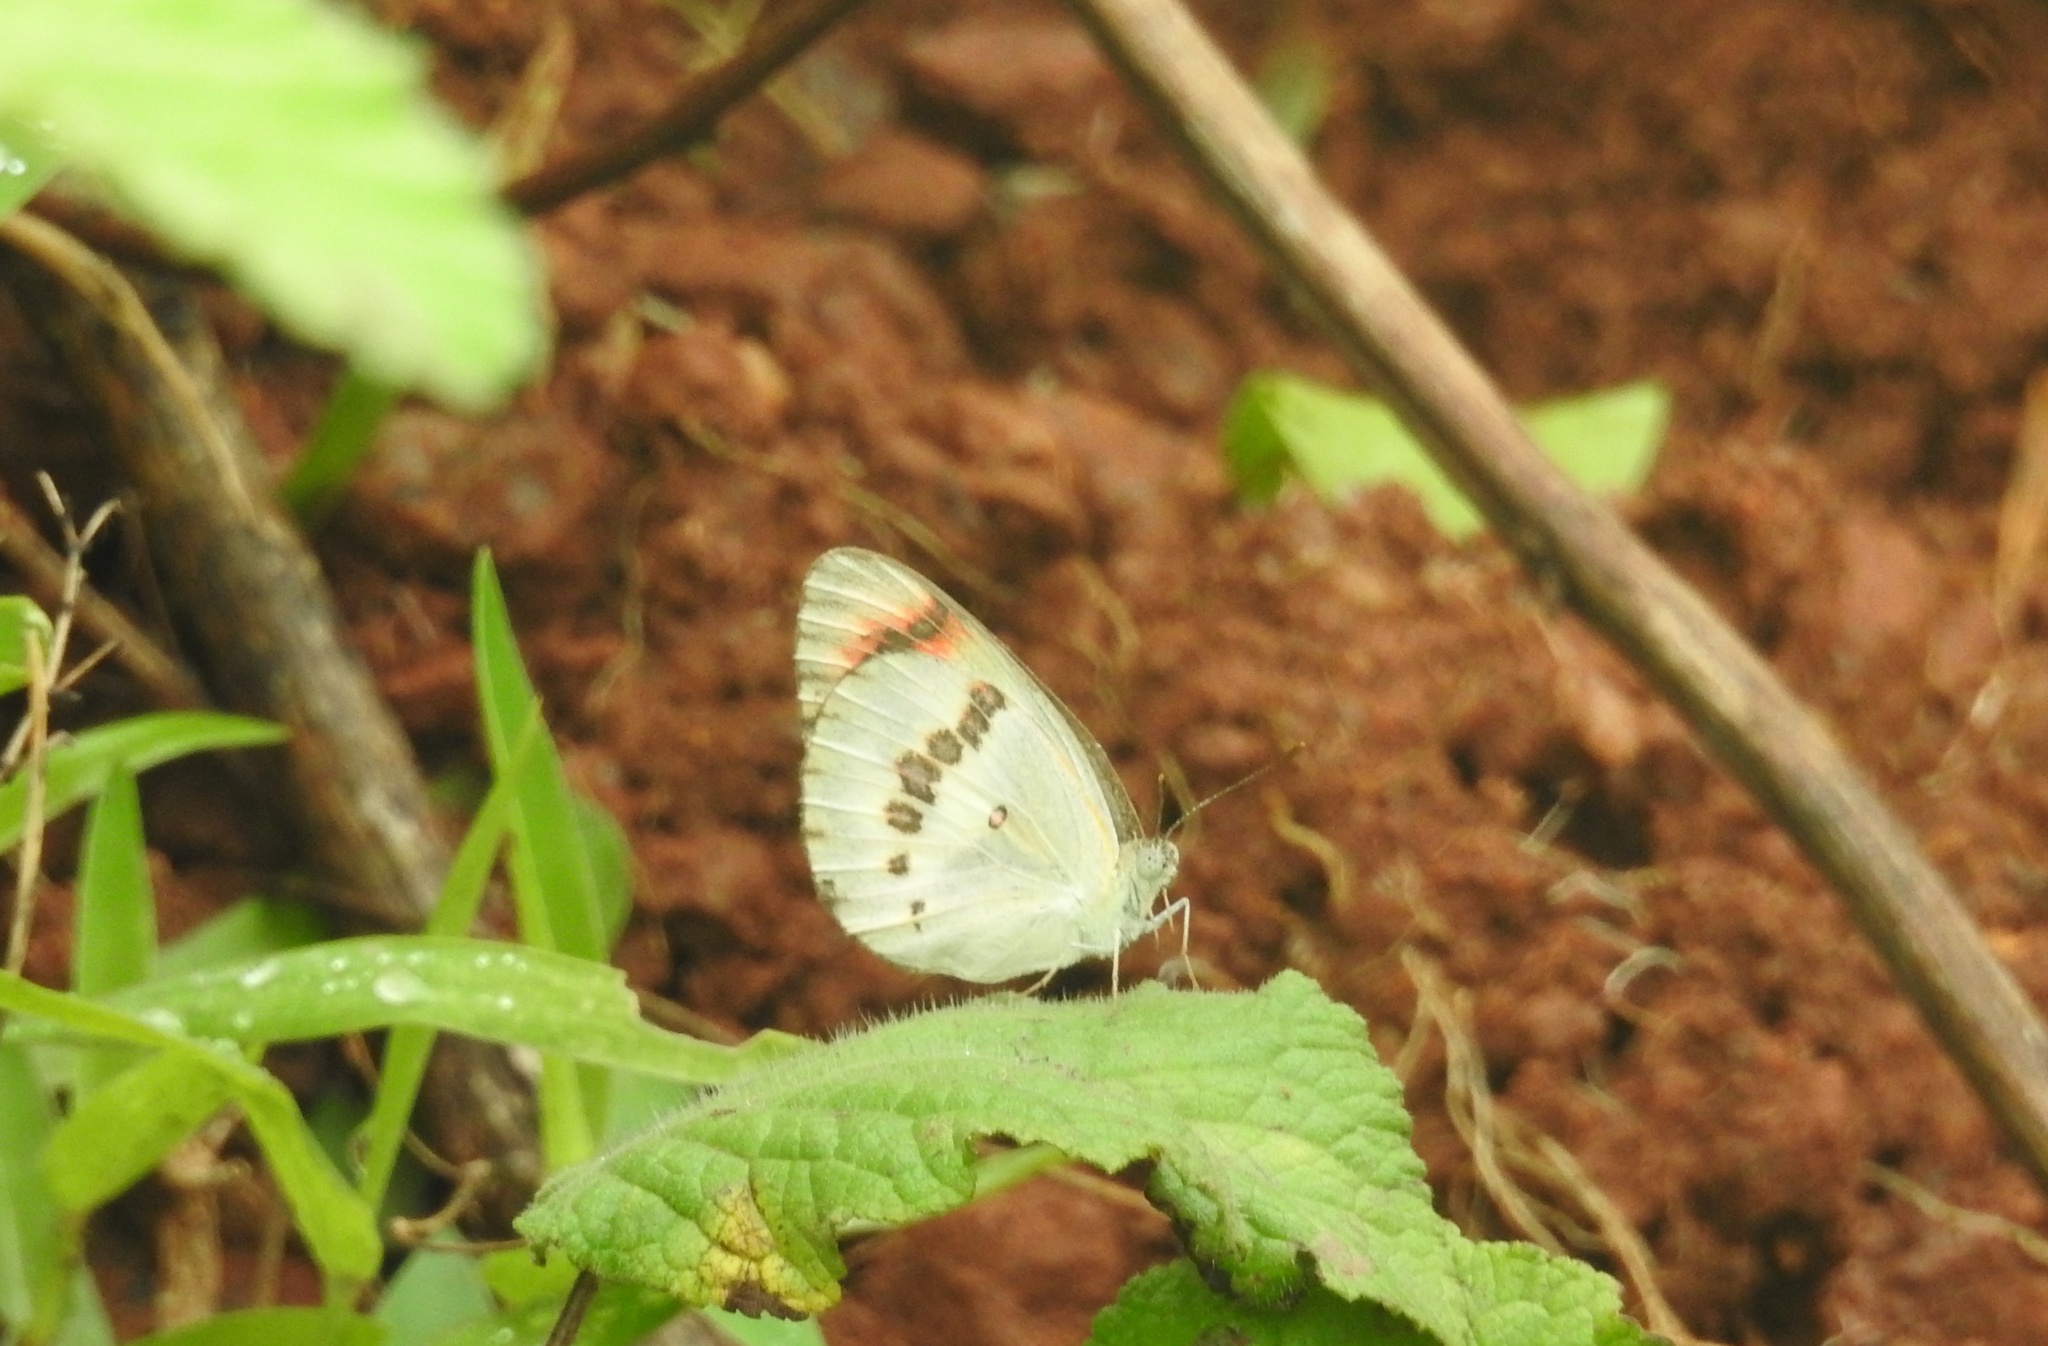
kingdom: Animalia
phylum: Arthropoda
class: Insecta
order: Lepidoptera
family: Pieridae
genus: Colotis
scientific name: Colotis danae
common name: Crimson tip
